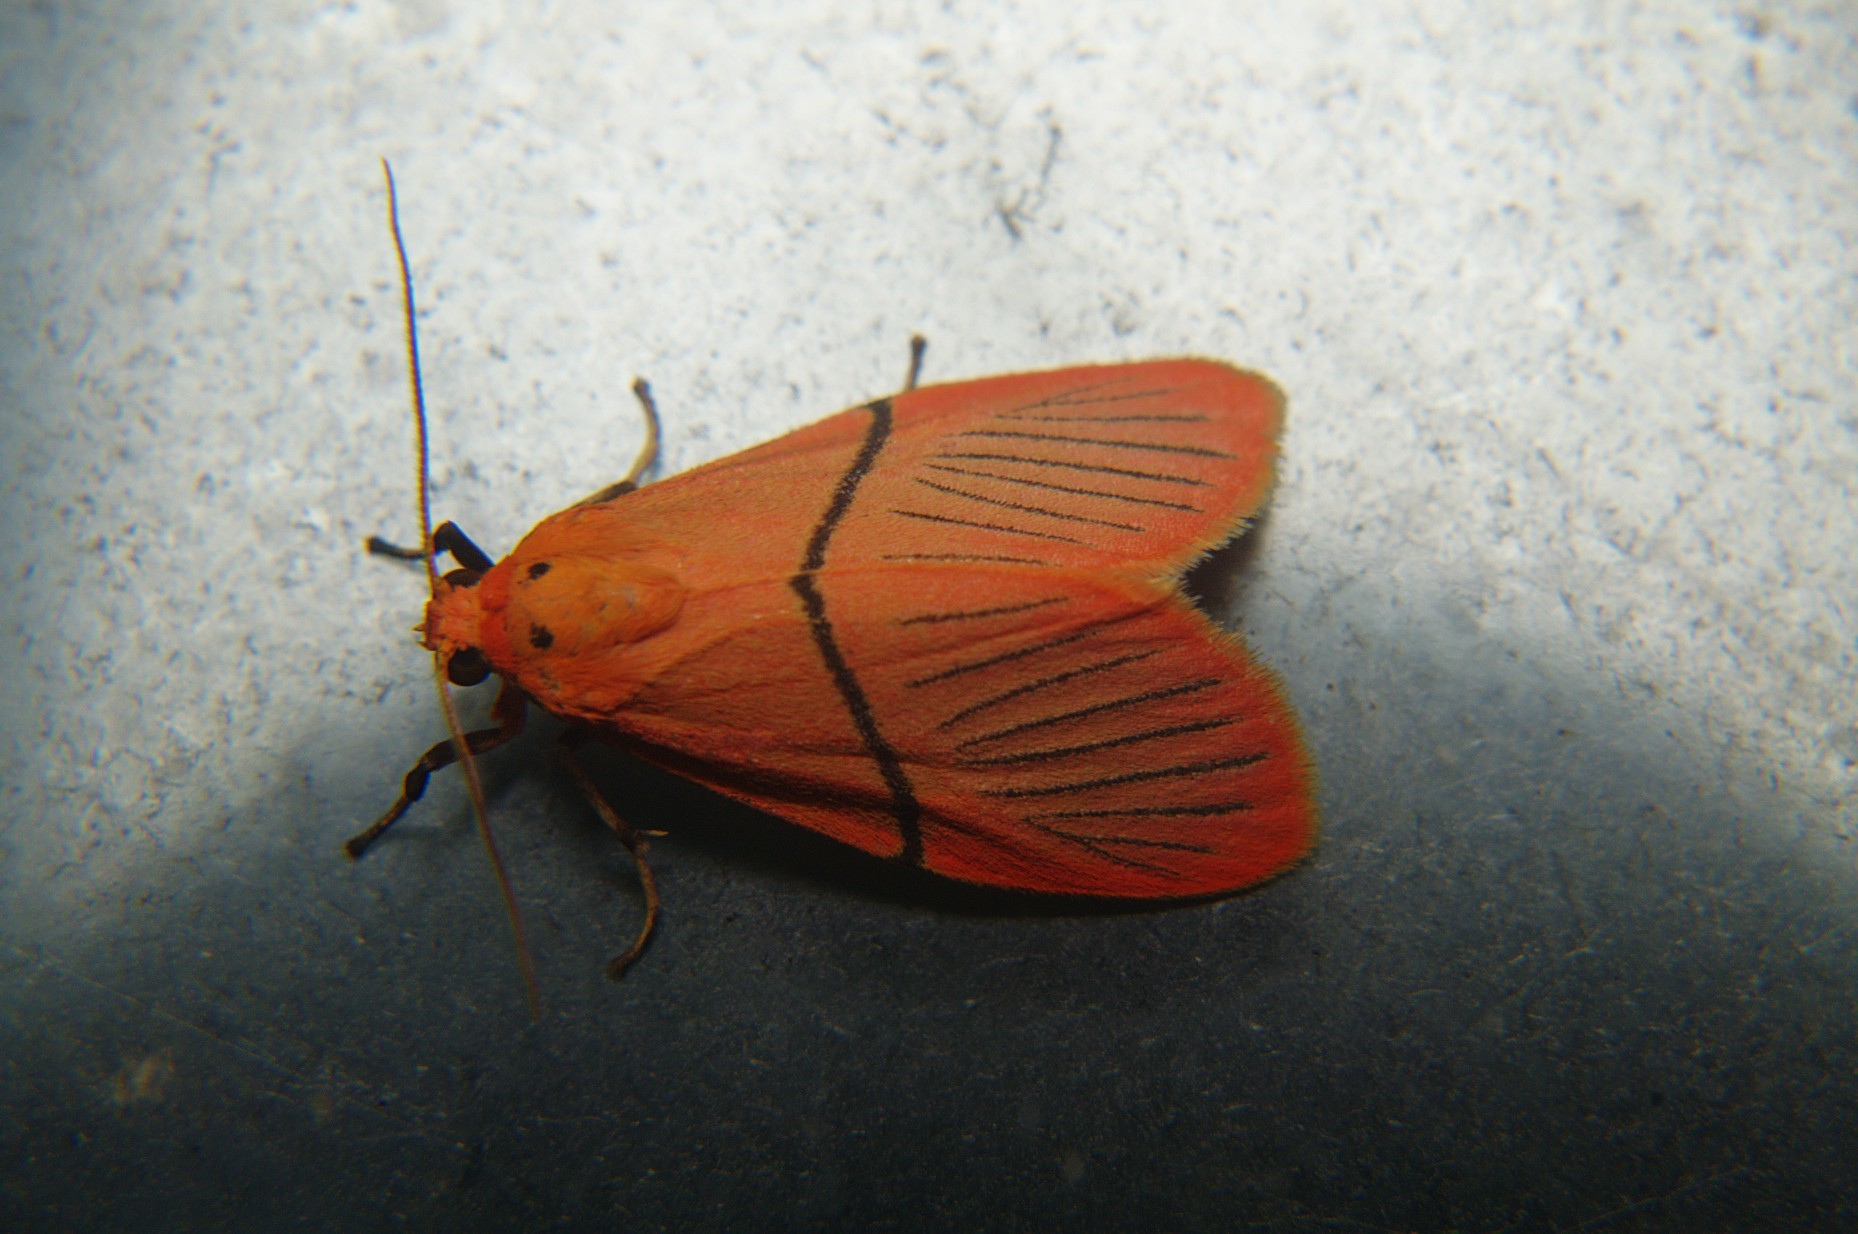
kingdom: Animalia
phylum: Arthropoda
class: Insecta
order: Lepidoptera
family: Erebidae
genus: Aberrasine
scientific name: Aberrasine strigivenata
